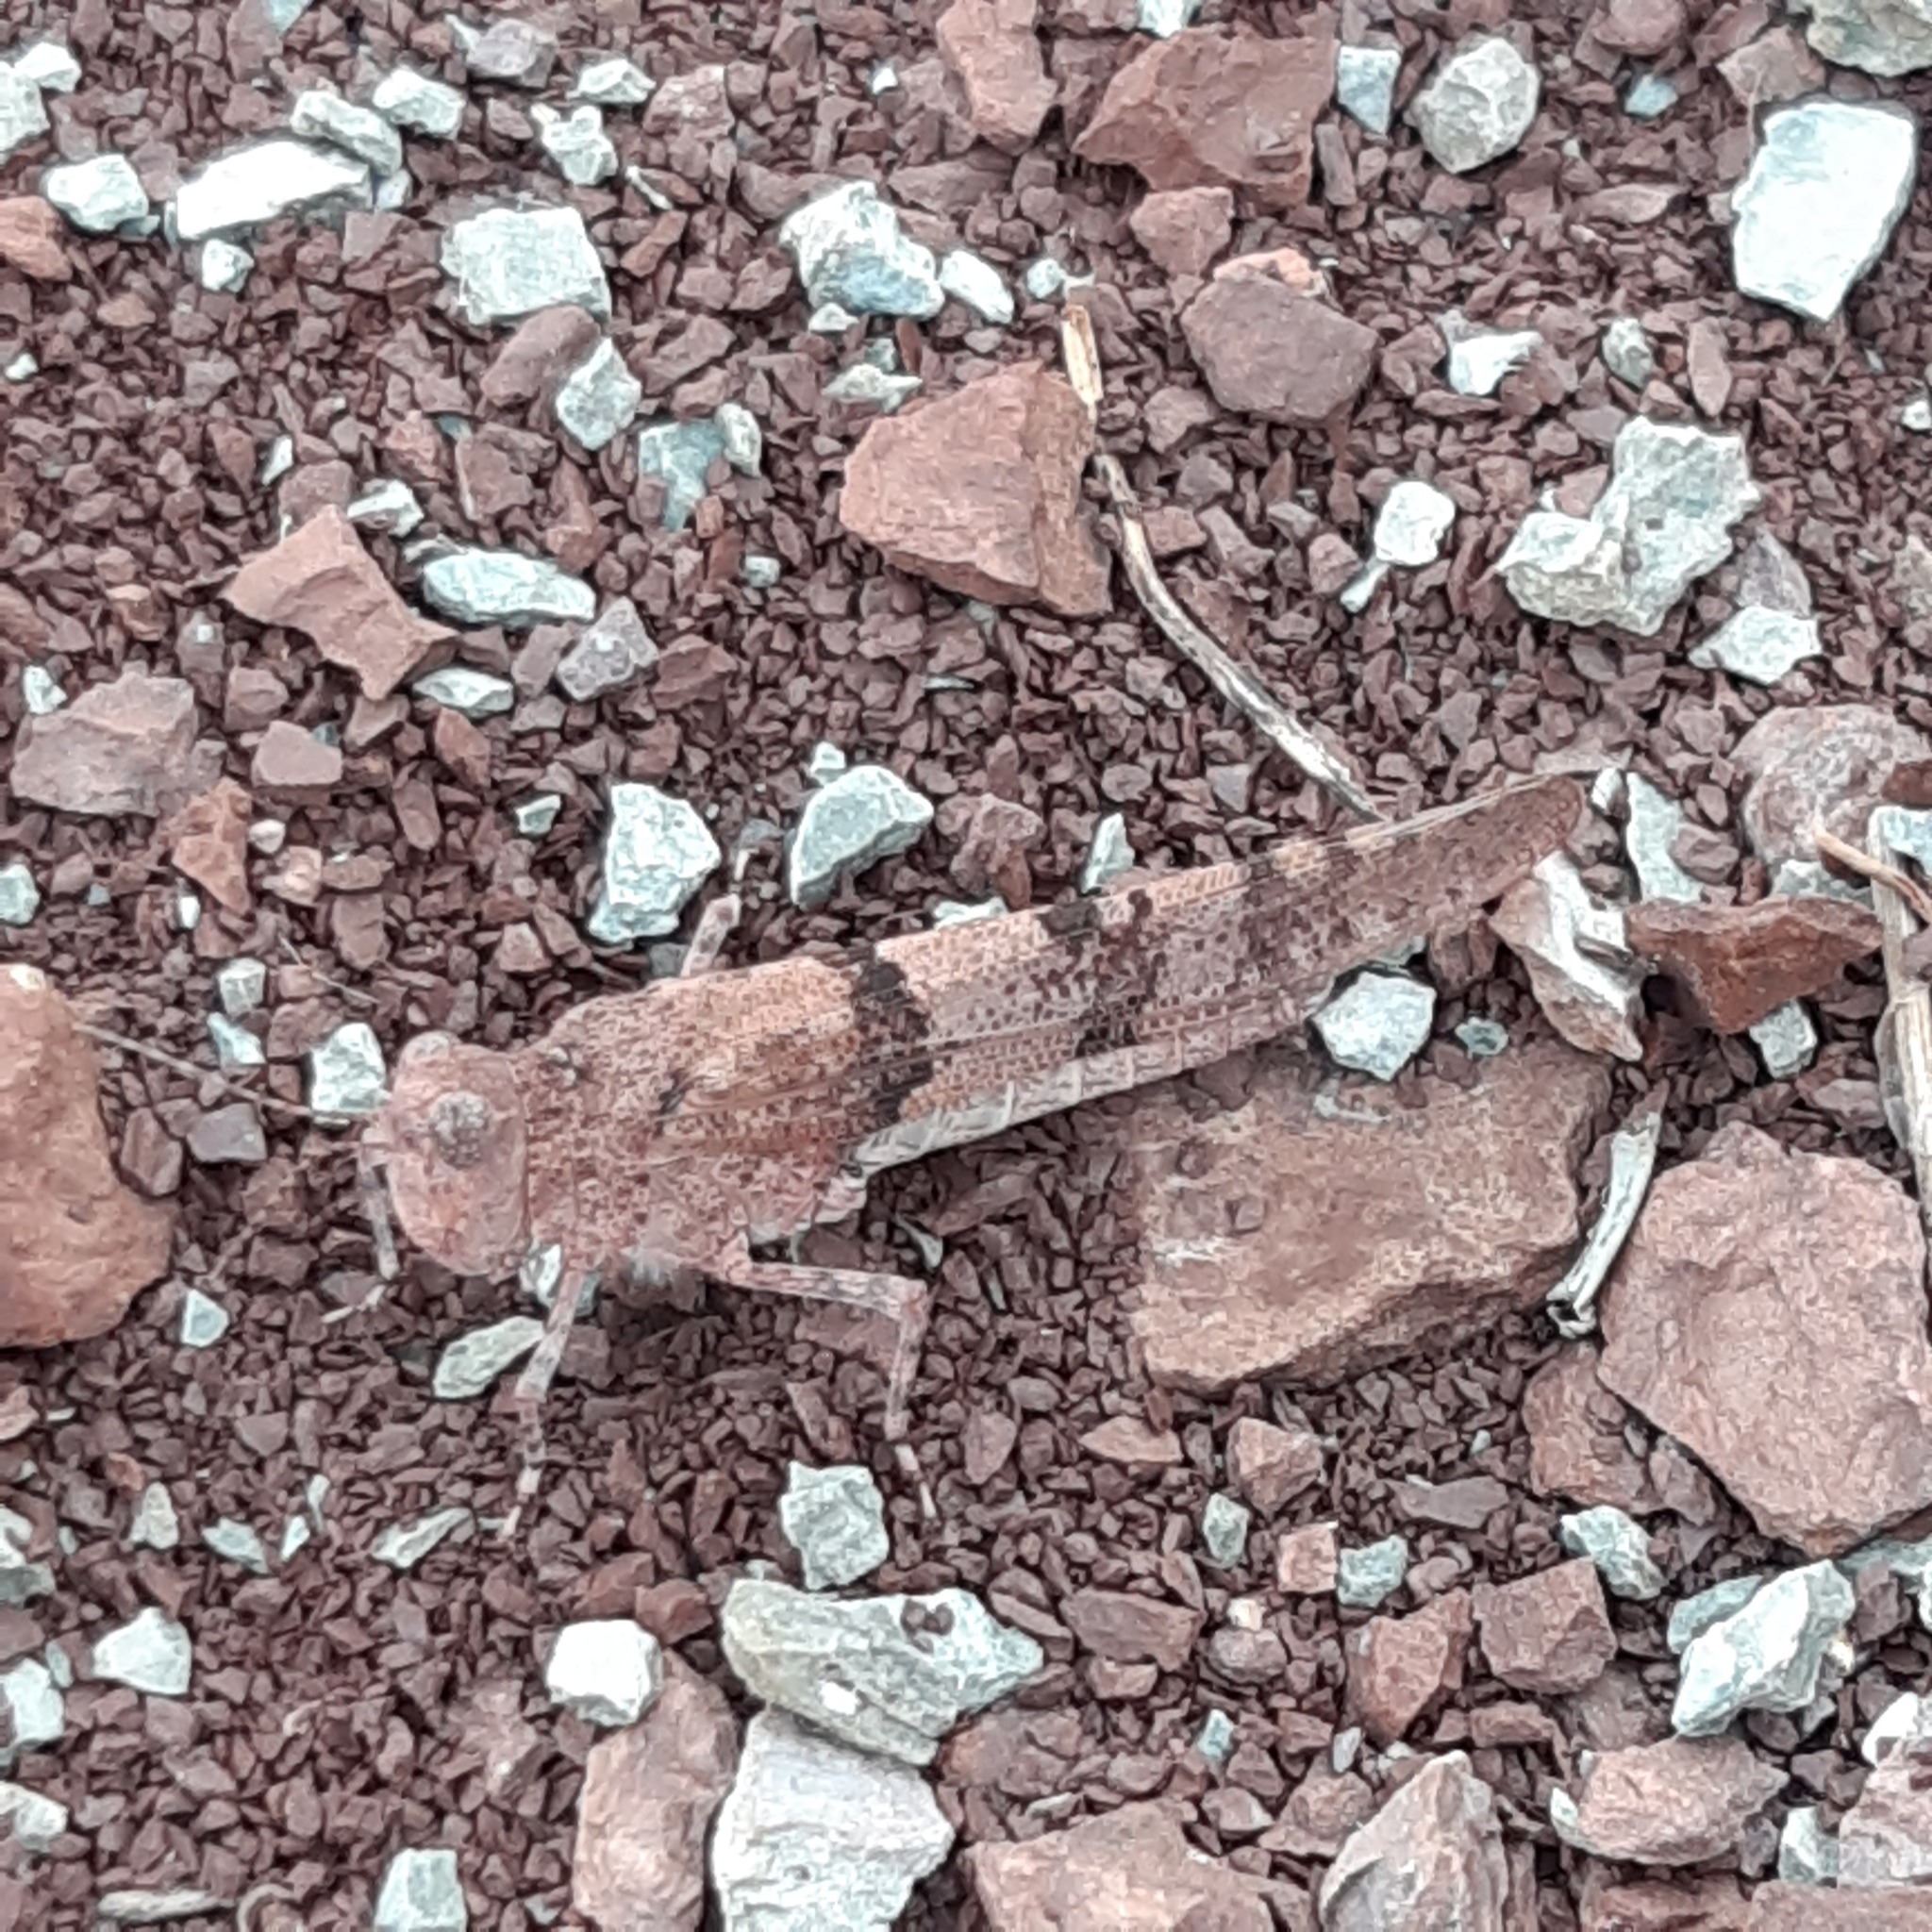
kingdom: Animalia
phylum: Arthropoda
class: Insecta
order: Orthoptera
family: Acrididae
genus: Sphingonotus
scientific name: Sphingonotus caerulans
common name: Blue-winged locust
